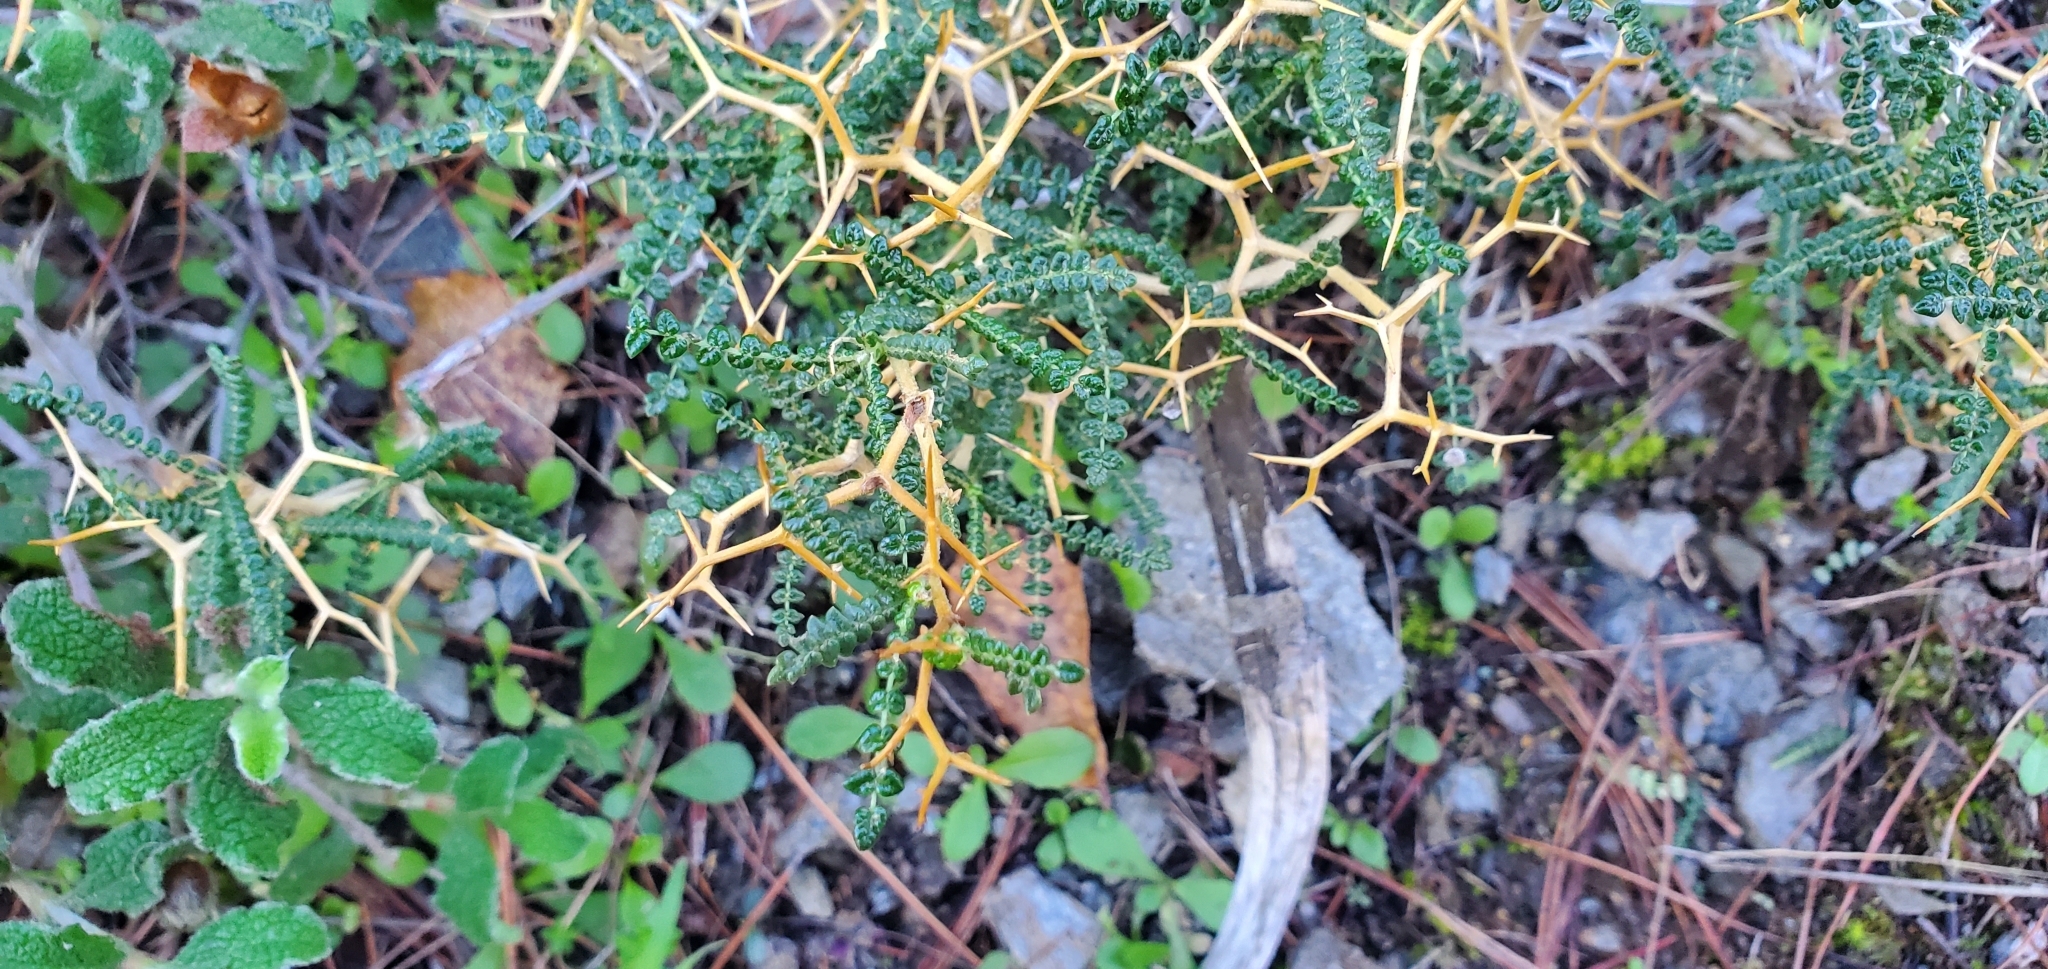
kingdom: Plantae
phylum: Tracheophyta
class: Magnoliopsida
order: Rosales
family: Rosaceae
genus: Sarcopoterium
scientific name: Sarcopoterium spinosum
